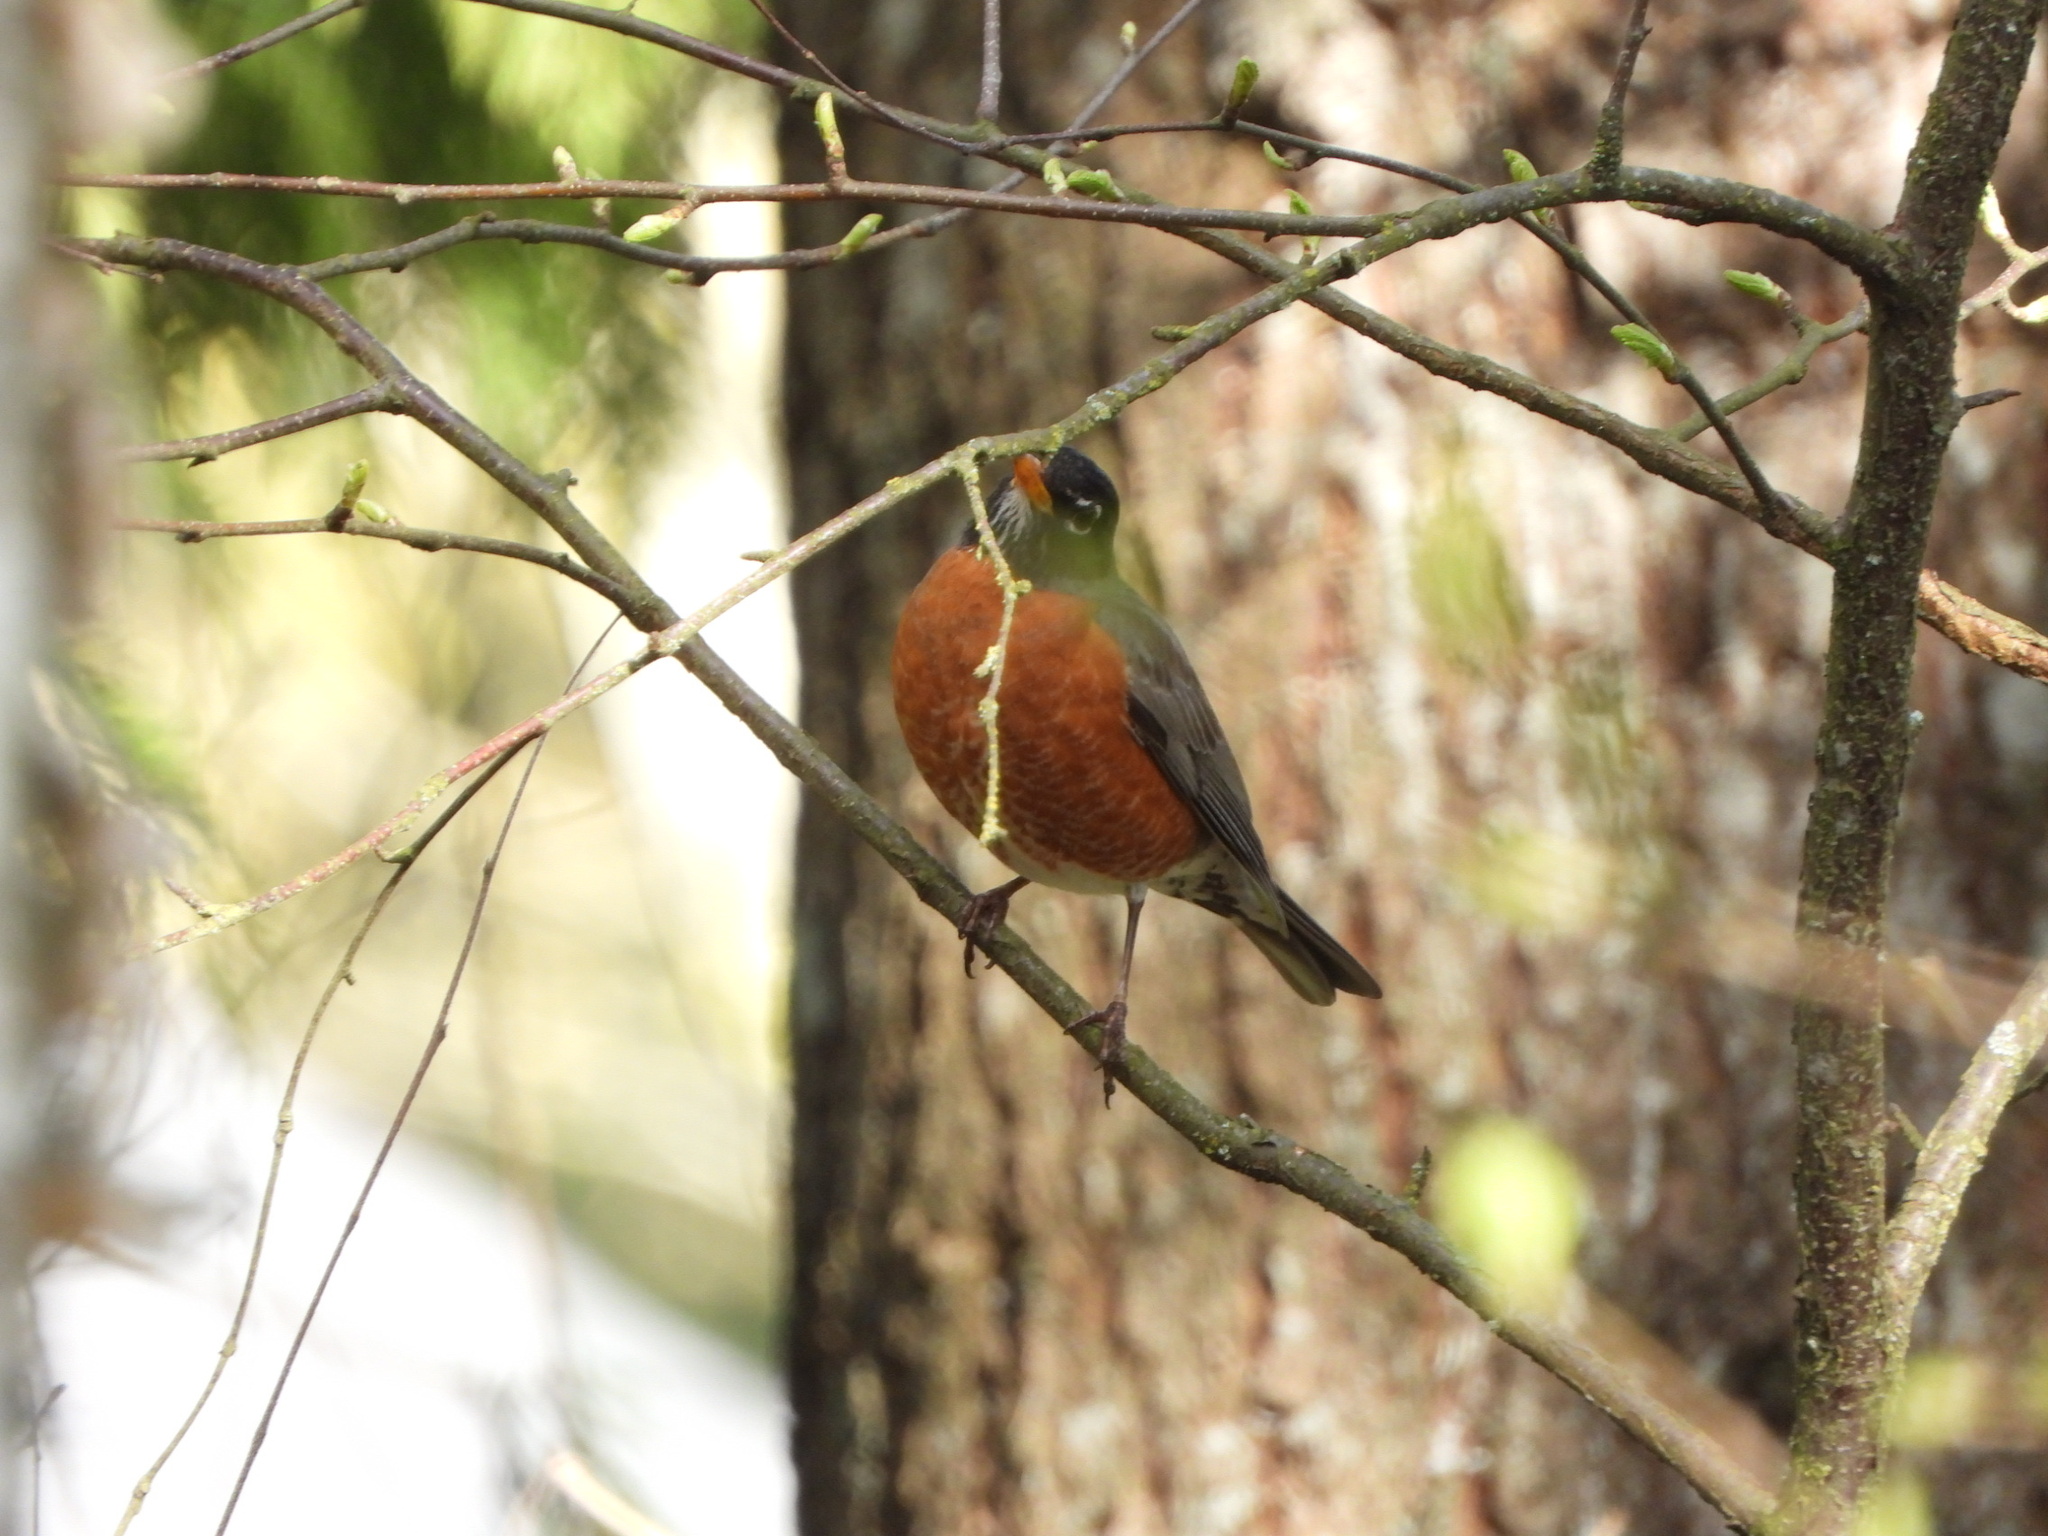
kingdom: Animalia
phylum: Chordata
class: Aves
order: Passeriformes
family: Turdidae
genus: Turdus
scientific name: Turdus migratorius
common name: American robin
